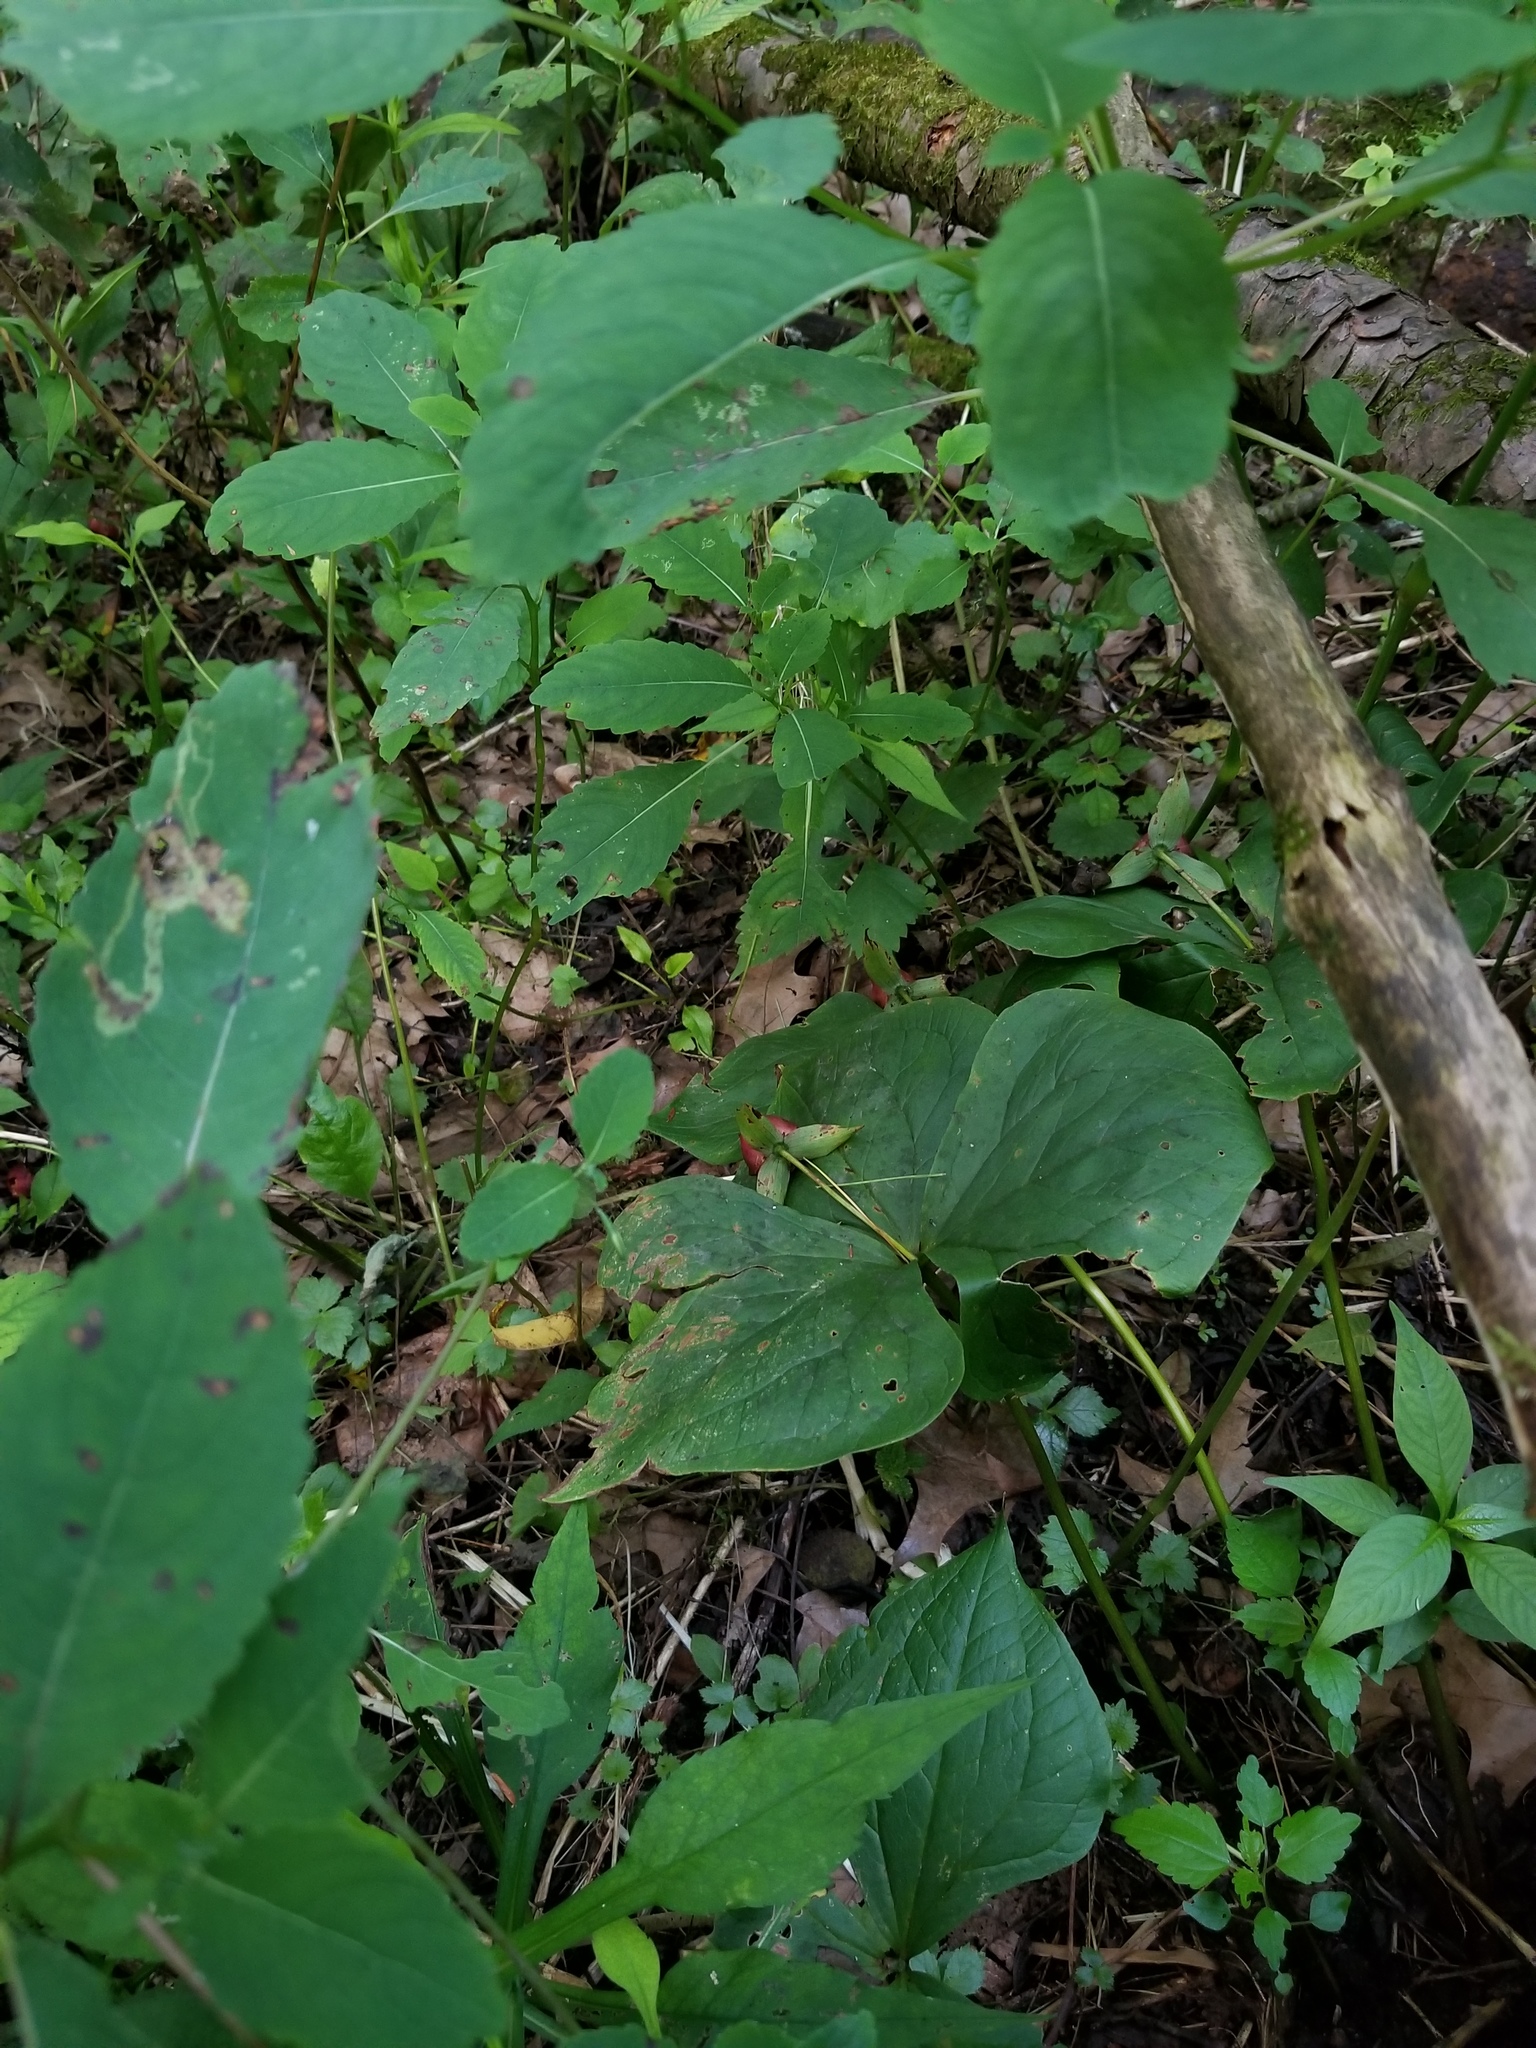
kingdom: Plantae
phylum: Tracheophyta
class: Liliopsida
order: Liliales
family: Melanthiaceae
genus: Trillium
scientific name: Trillium erectum
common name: Purple trillium
